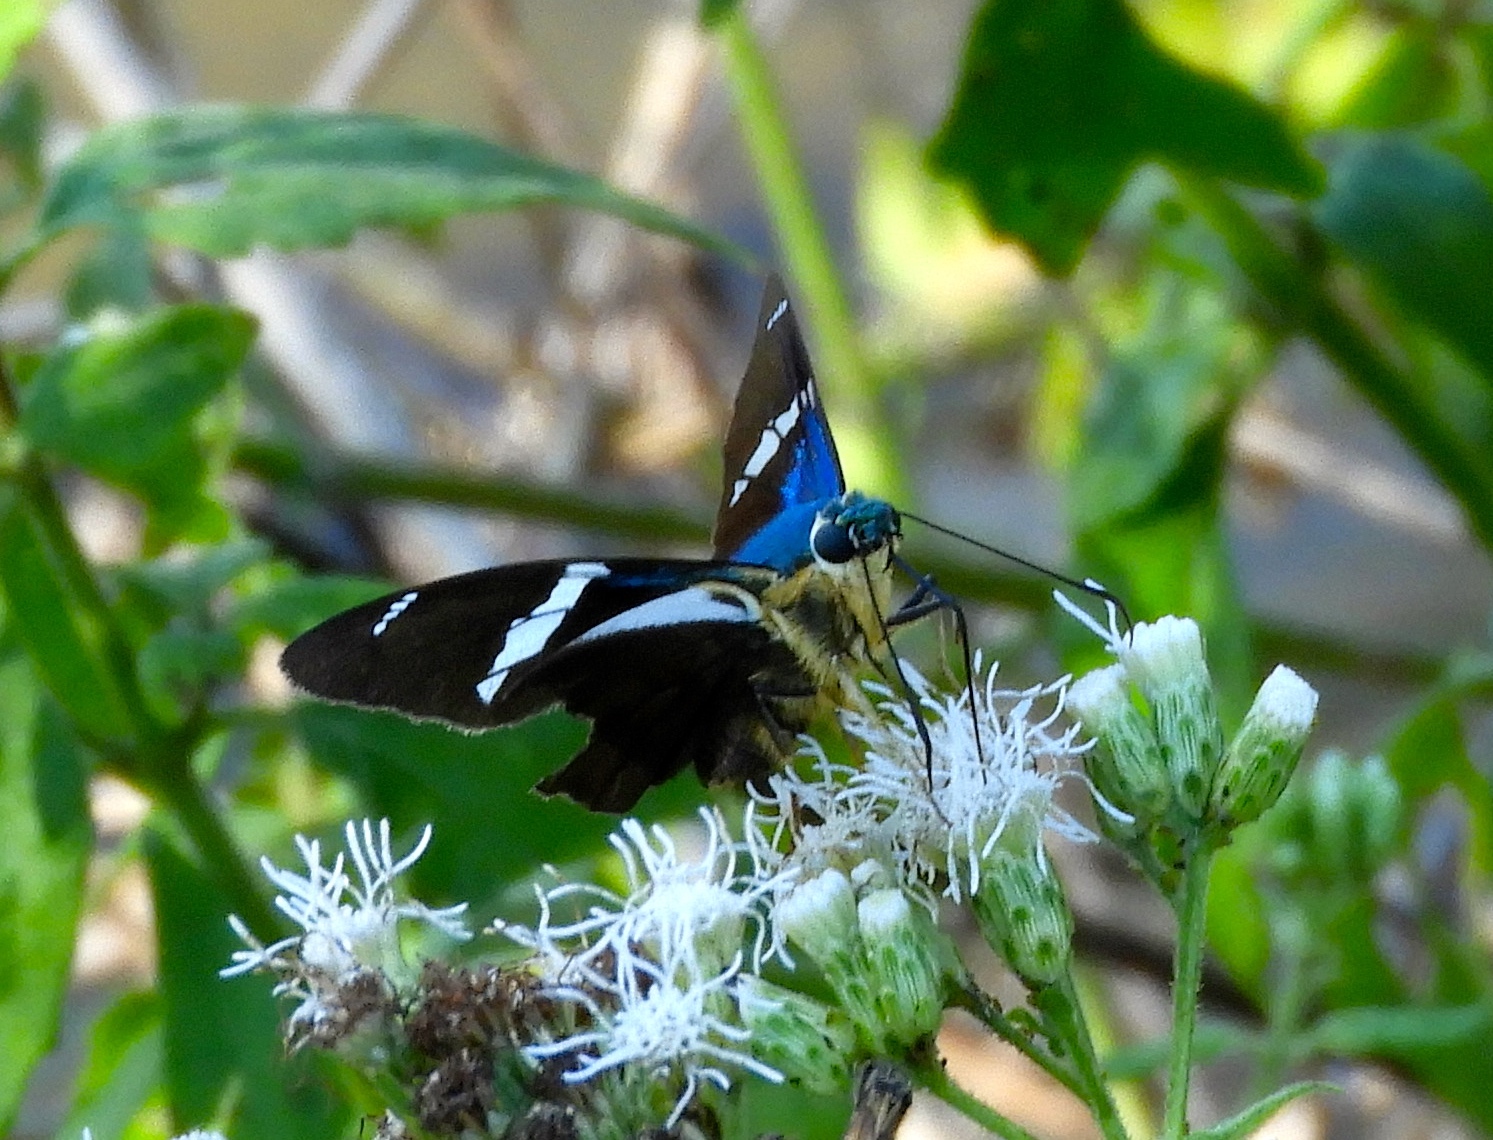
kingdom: Animalia
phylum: Arthropoda
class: Insecta
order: Lepidoptera
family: Hesperiidae
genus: Astraptes
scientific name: Astraptes fulgerator
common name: Two-barred flasher
